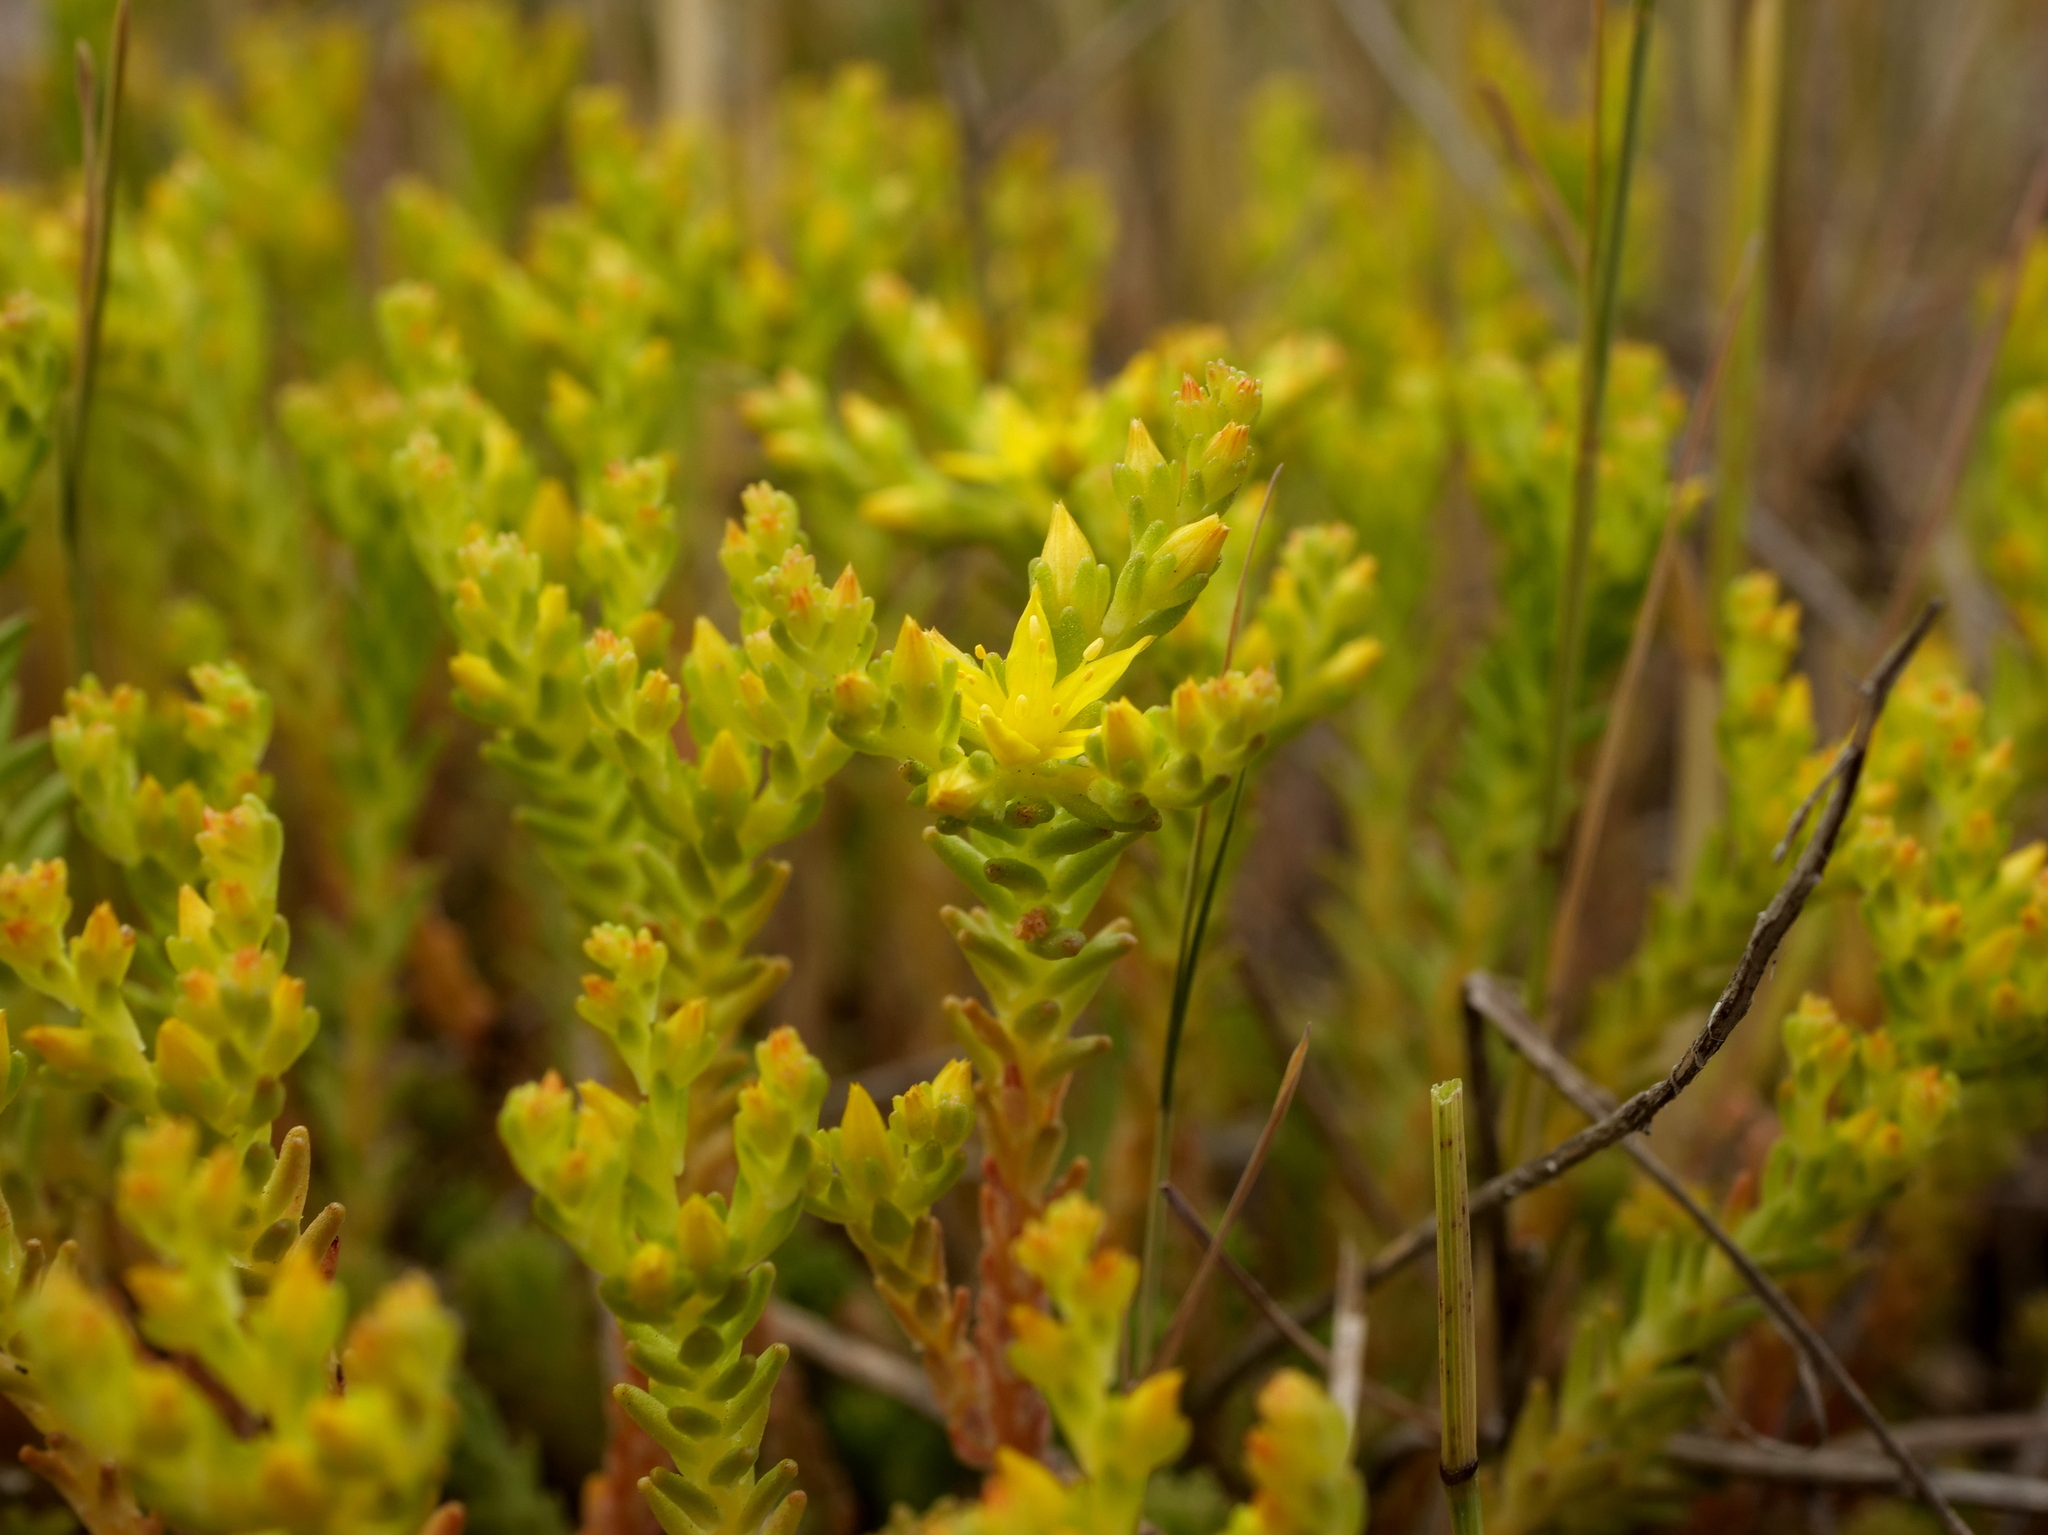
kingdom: Plantae
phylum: Tracheophyta
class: Magnoliopsida
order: Saxifragales
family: Crassulaceae
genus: Sedum
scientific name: Sedum sexangulare
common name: Tasteless stonecrop
